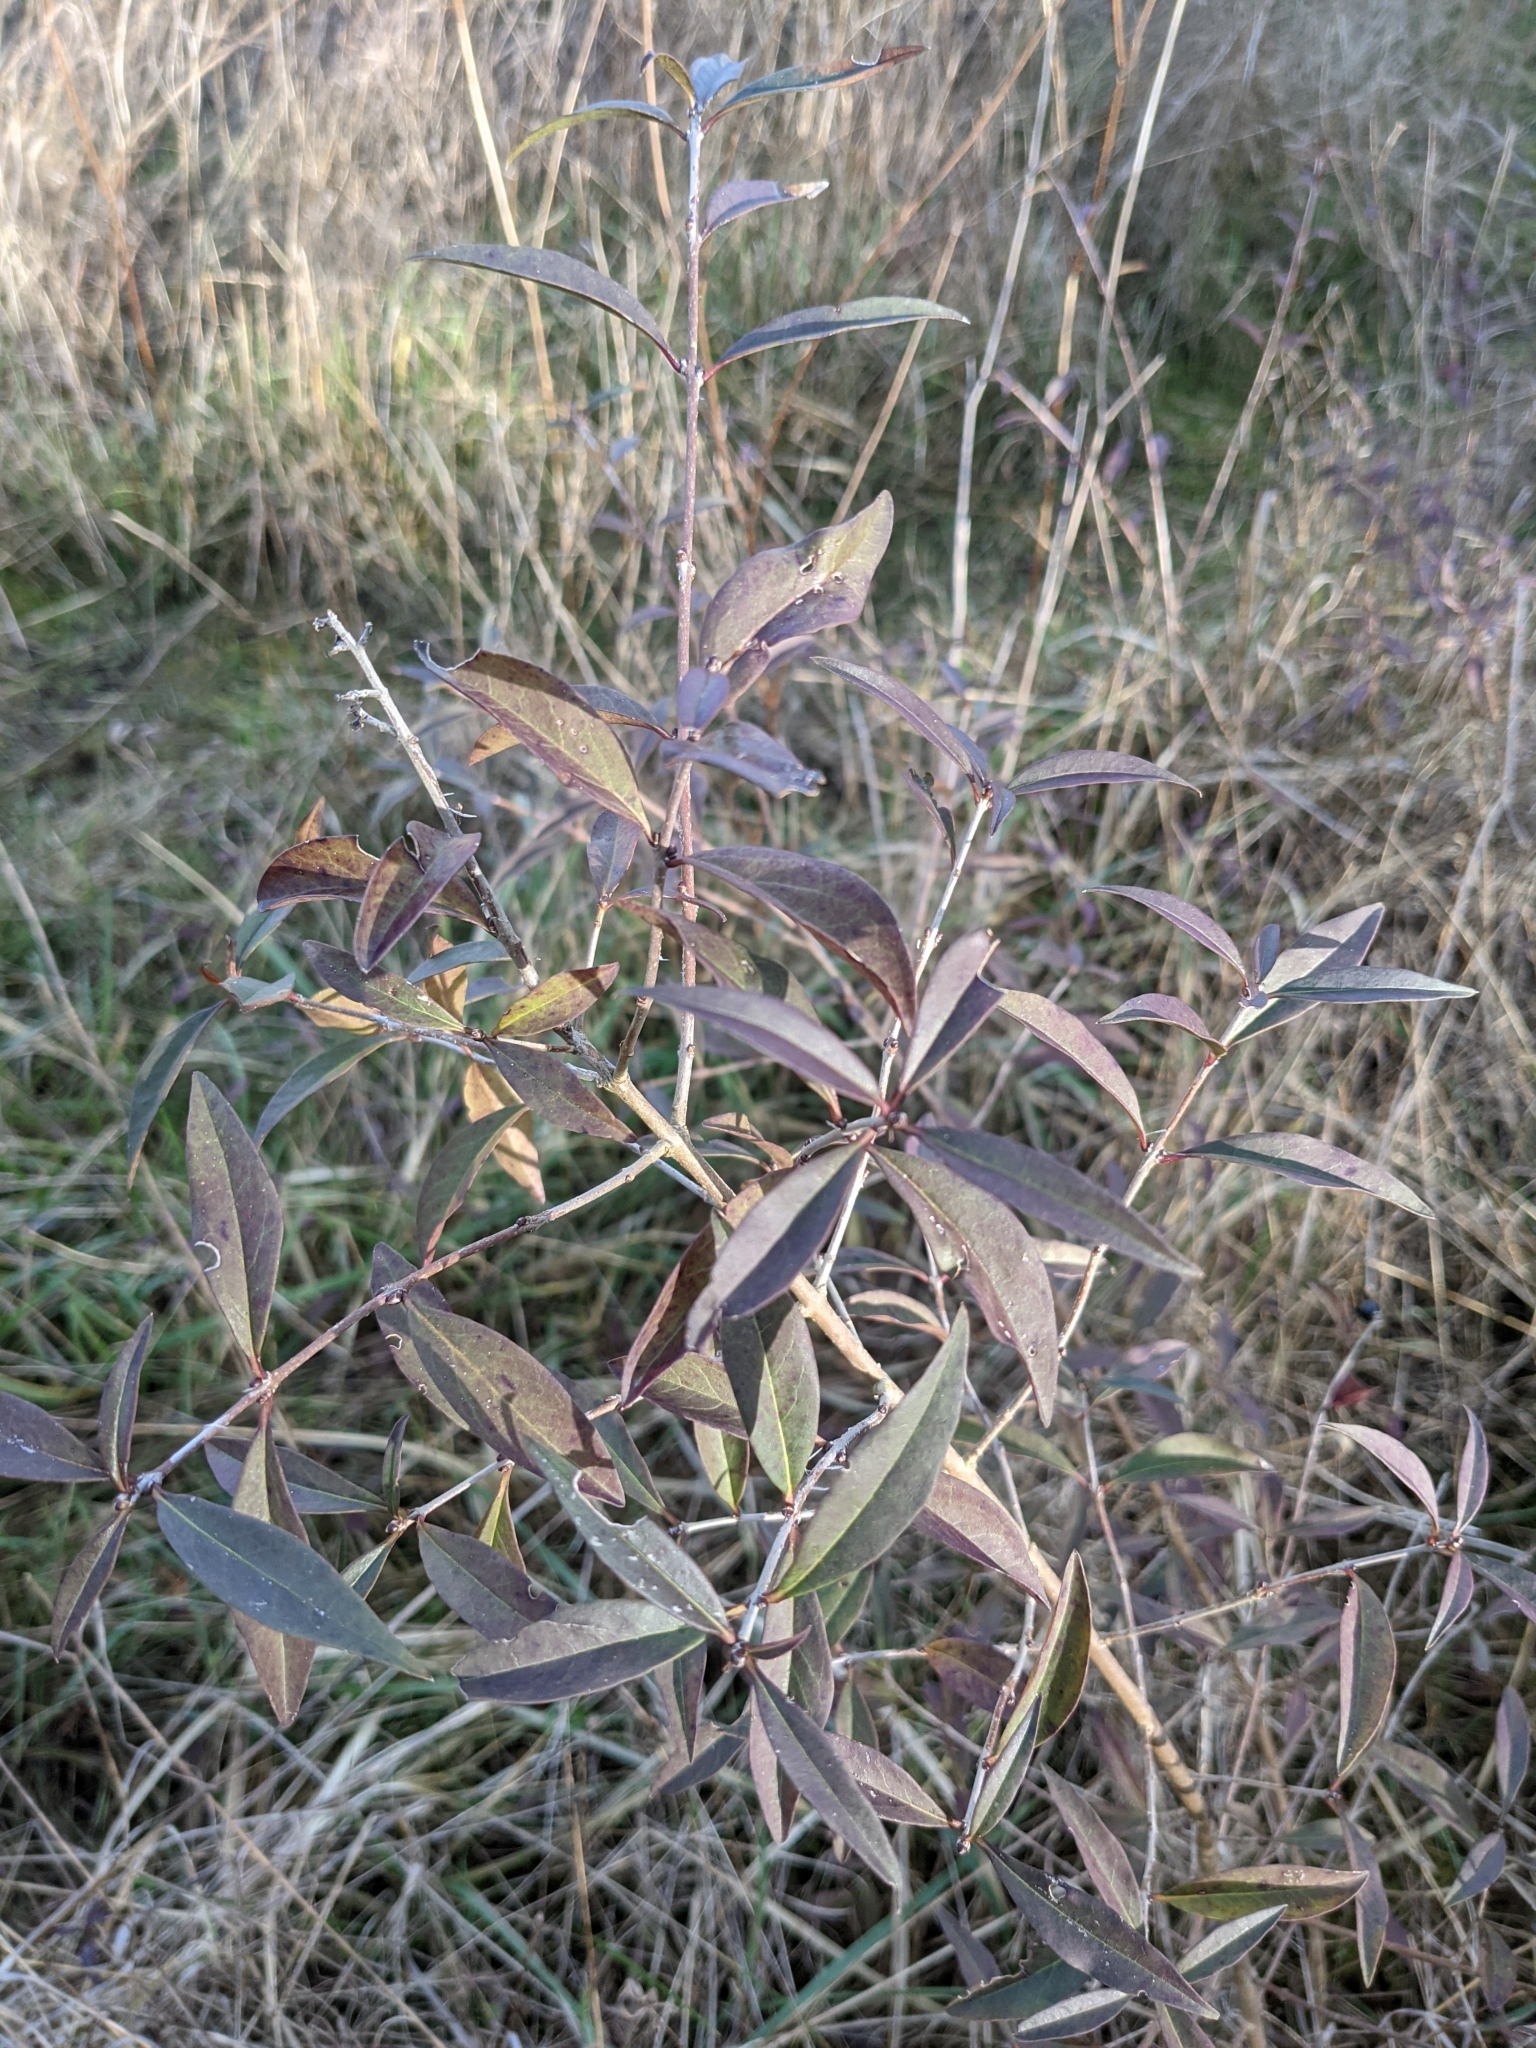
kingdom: Plantae
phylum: Tracheophyta
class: Magnoliopsida
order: Lamiales
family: Oleaceae
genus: Ligustrum
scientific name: Ligustrum vulgare
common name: Wild privet
